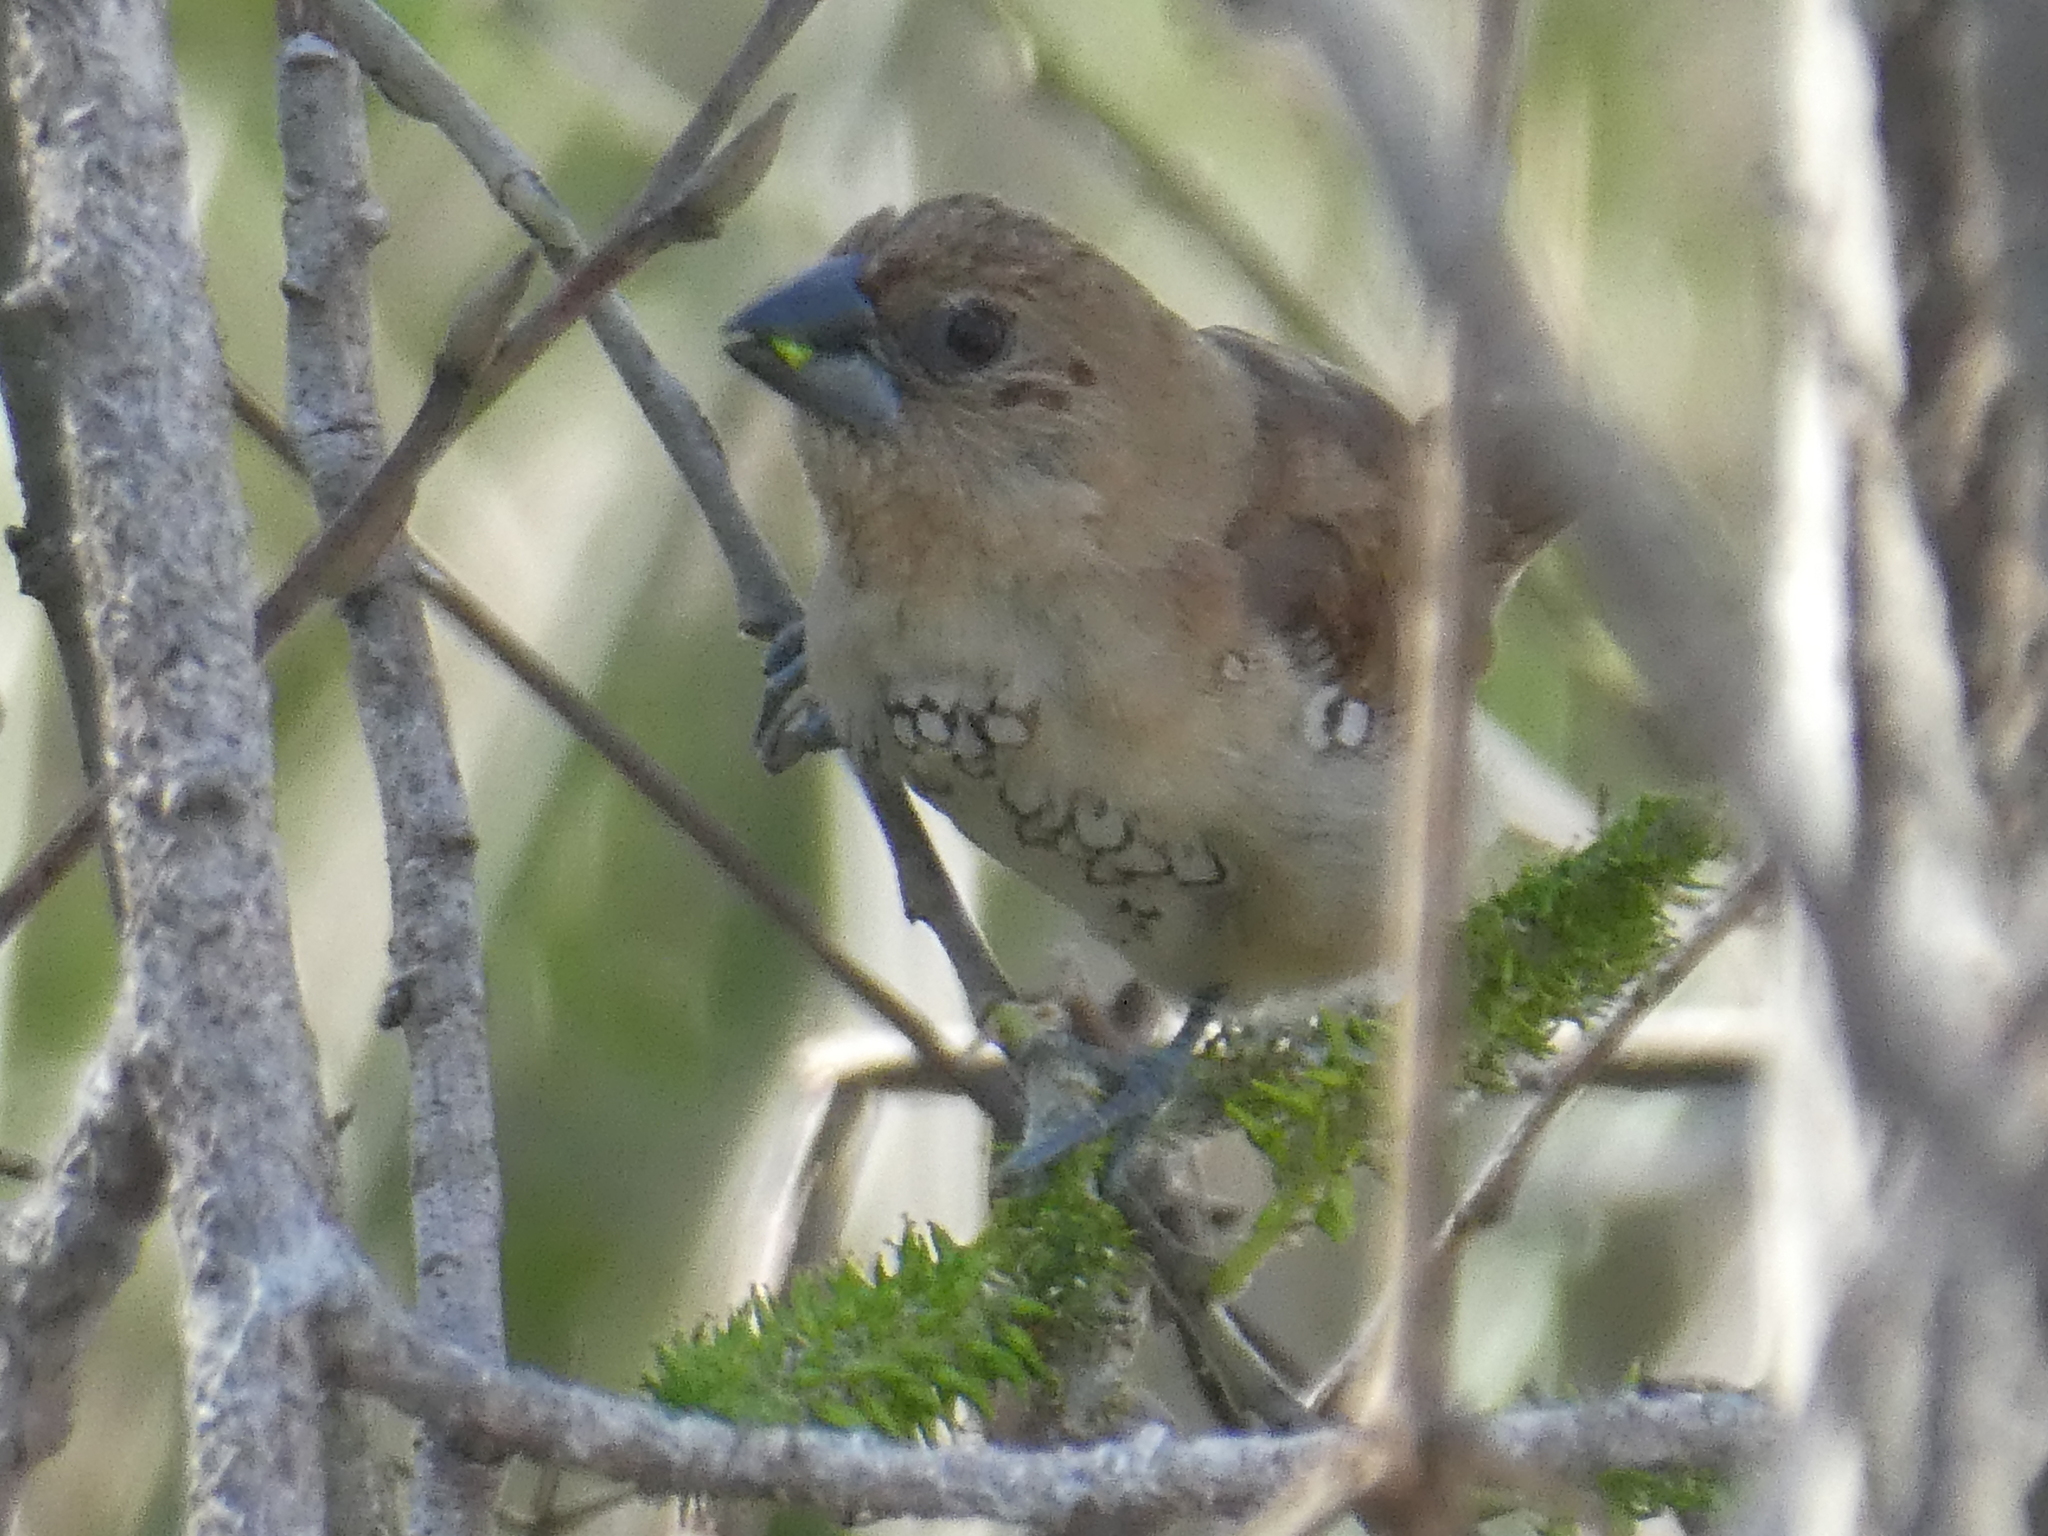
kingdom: Animalia
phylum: Chordata
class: Aves
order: Passeriformes
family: Estrildidae
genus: Lonchura
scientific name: Lonchura punctulata
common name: Scaly-breasted munia
